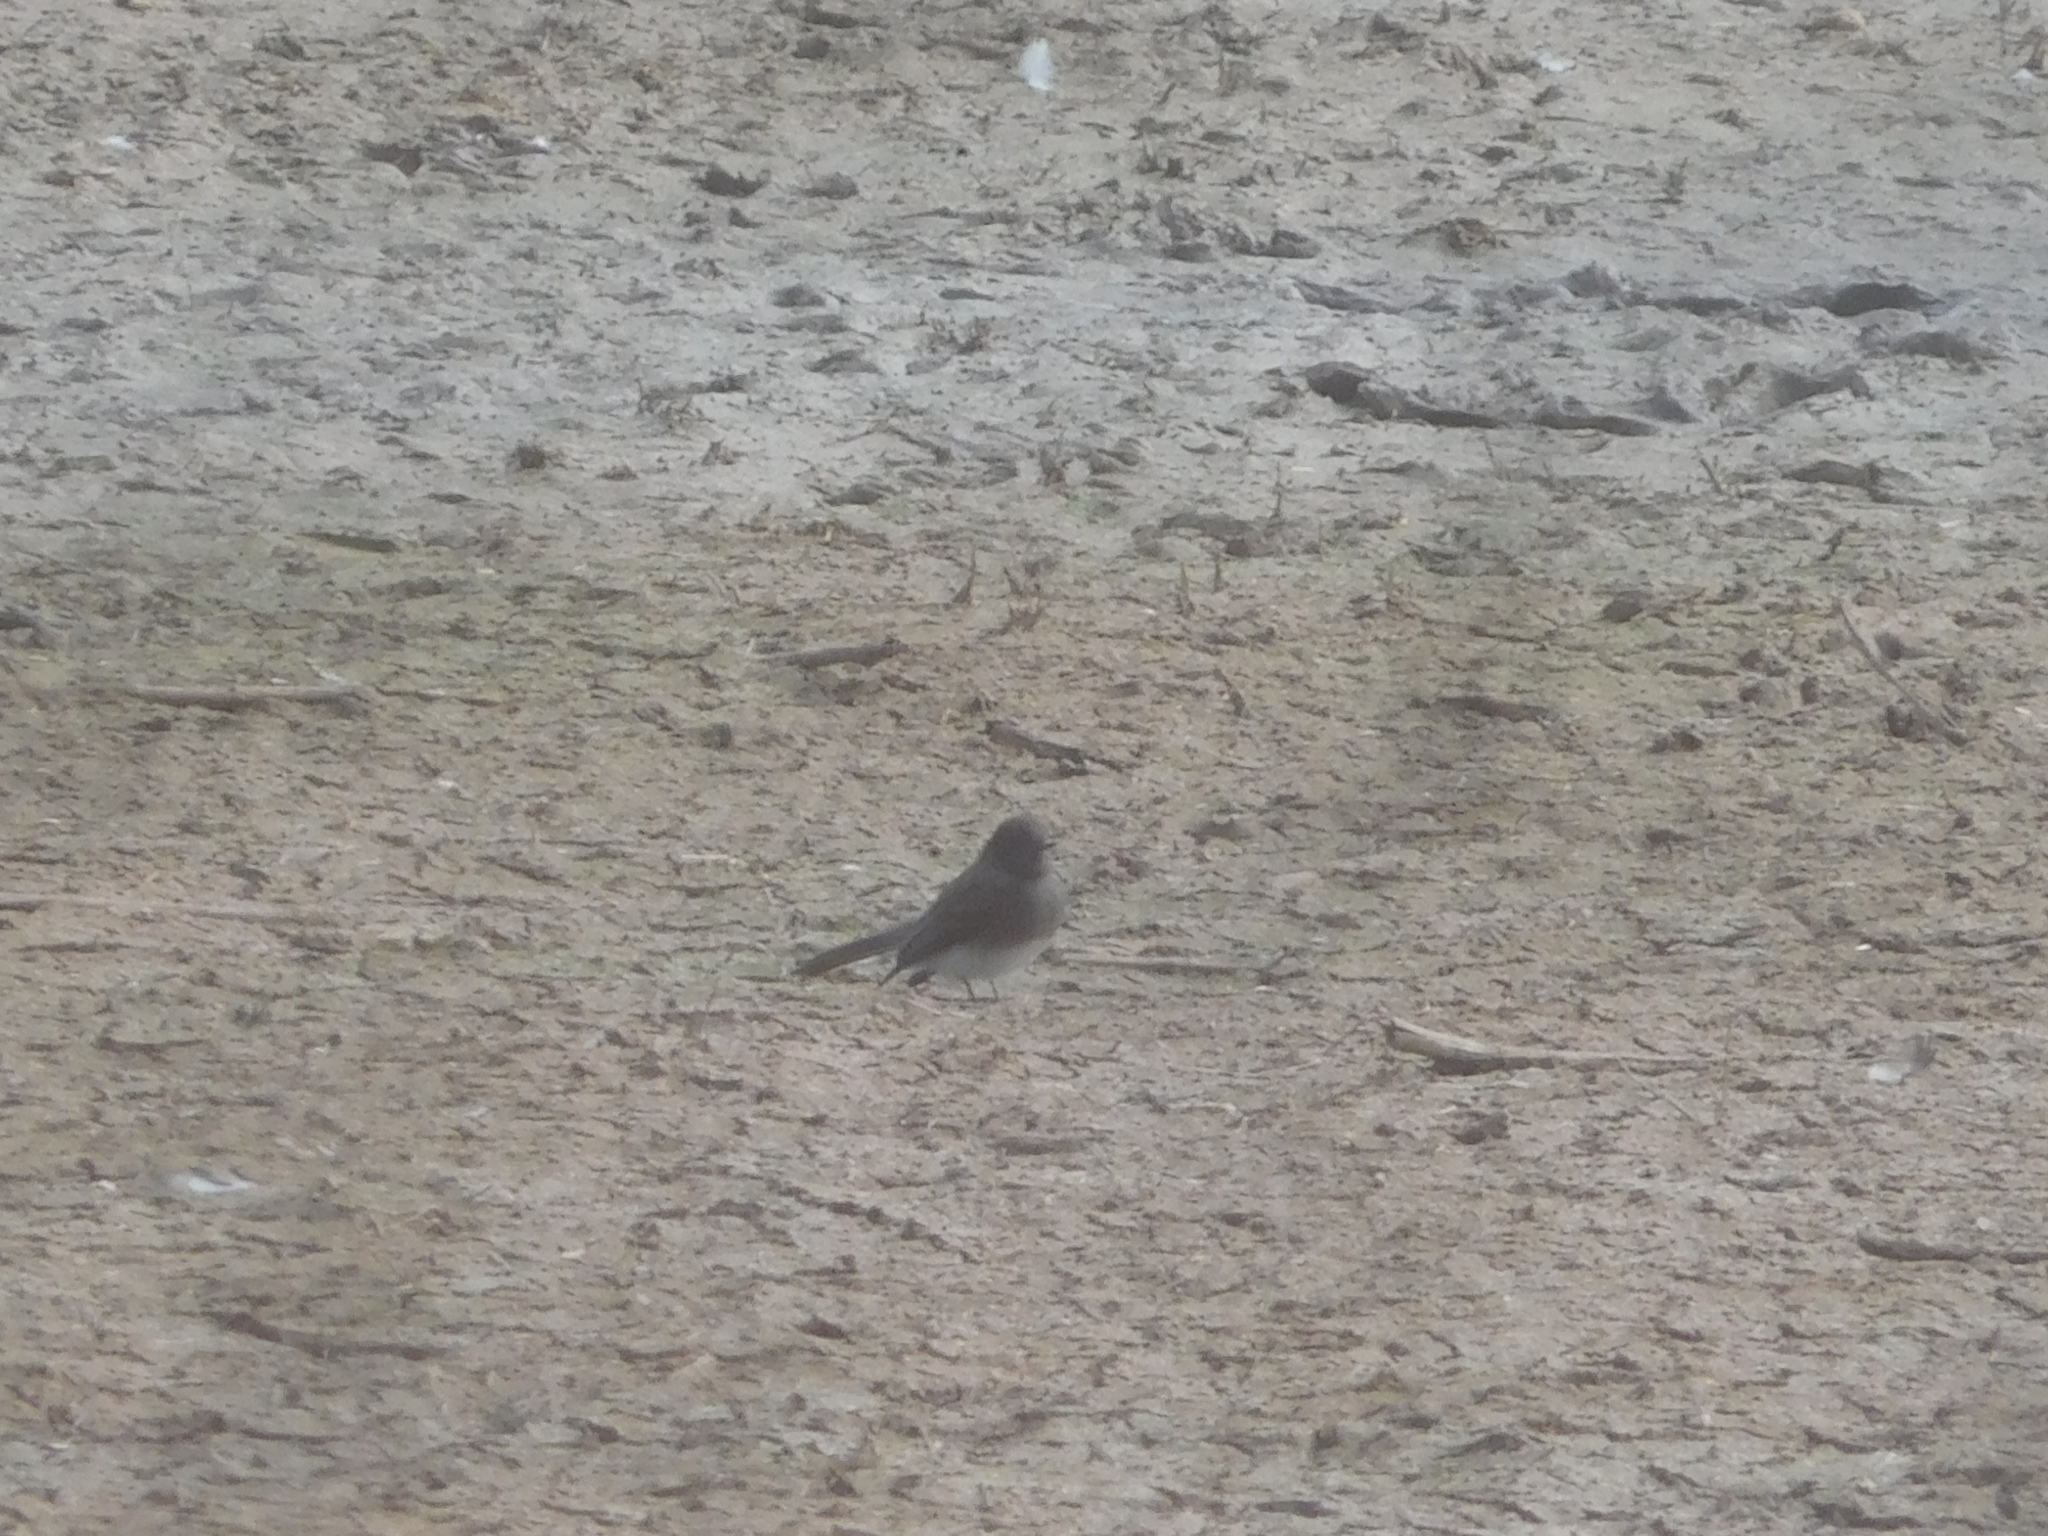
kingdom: Animalia
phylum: Chordata
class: Aves
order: Passeriformes
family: Tyrannidae
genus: Sayornis
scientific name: Sayornis nigricans
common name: Black phoebe
